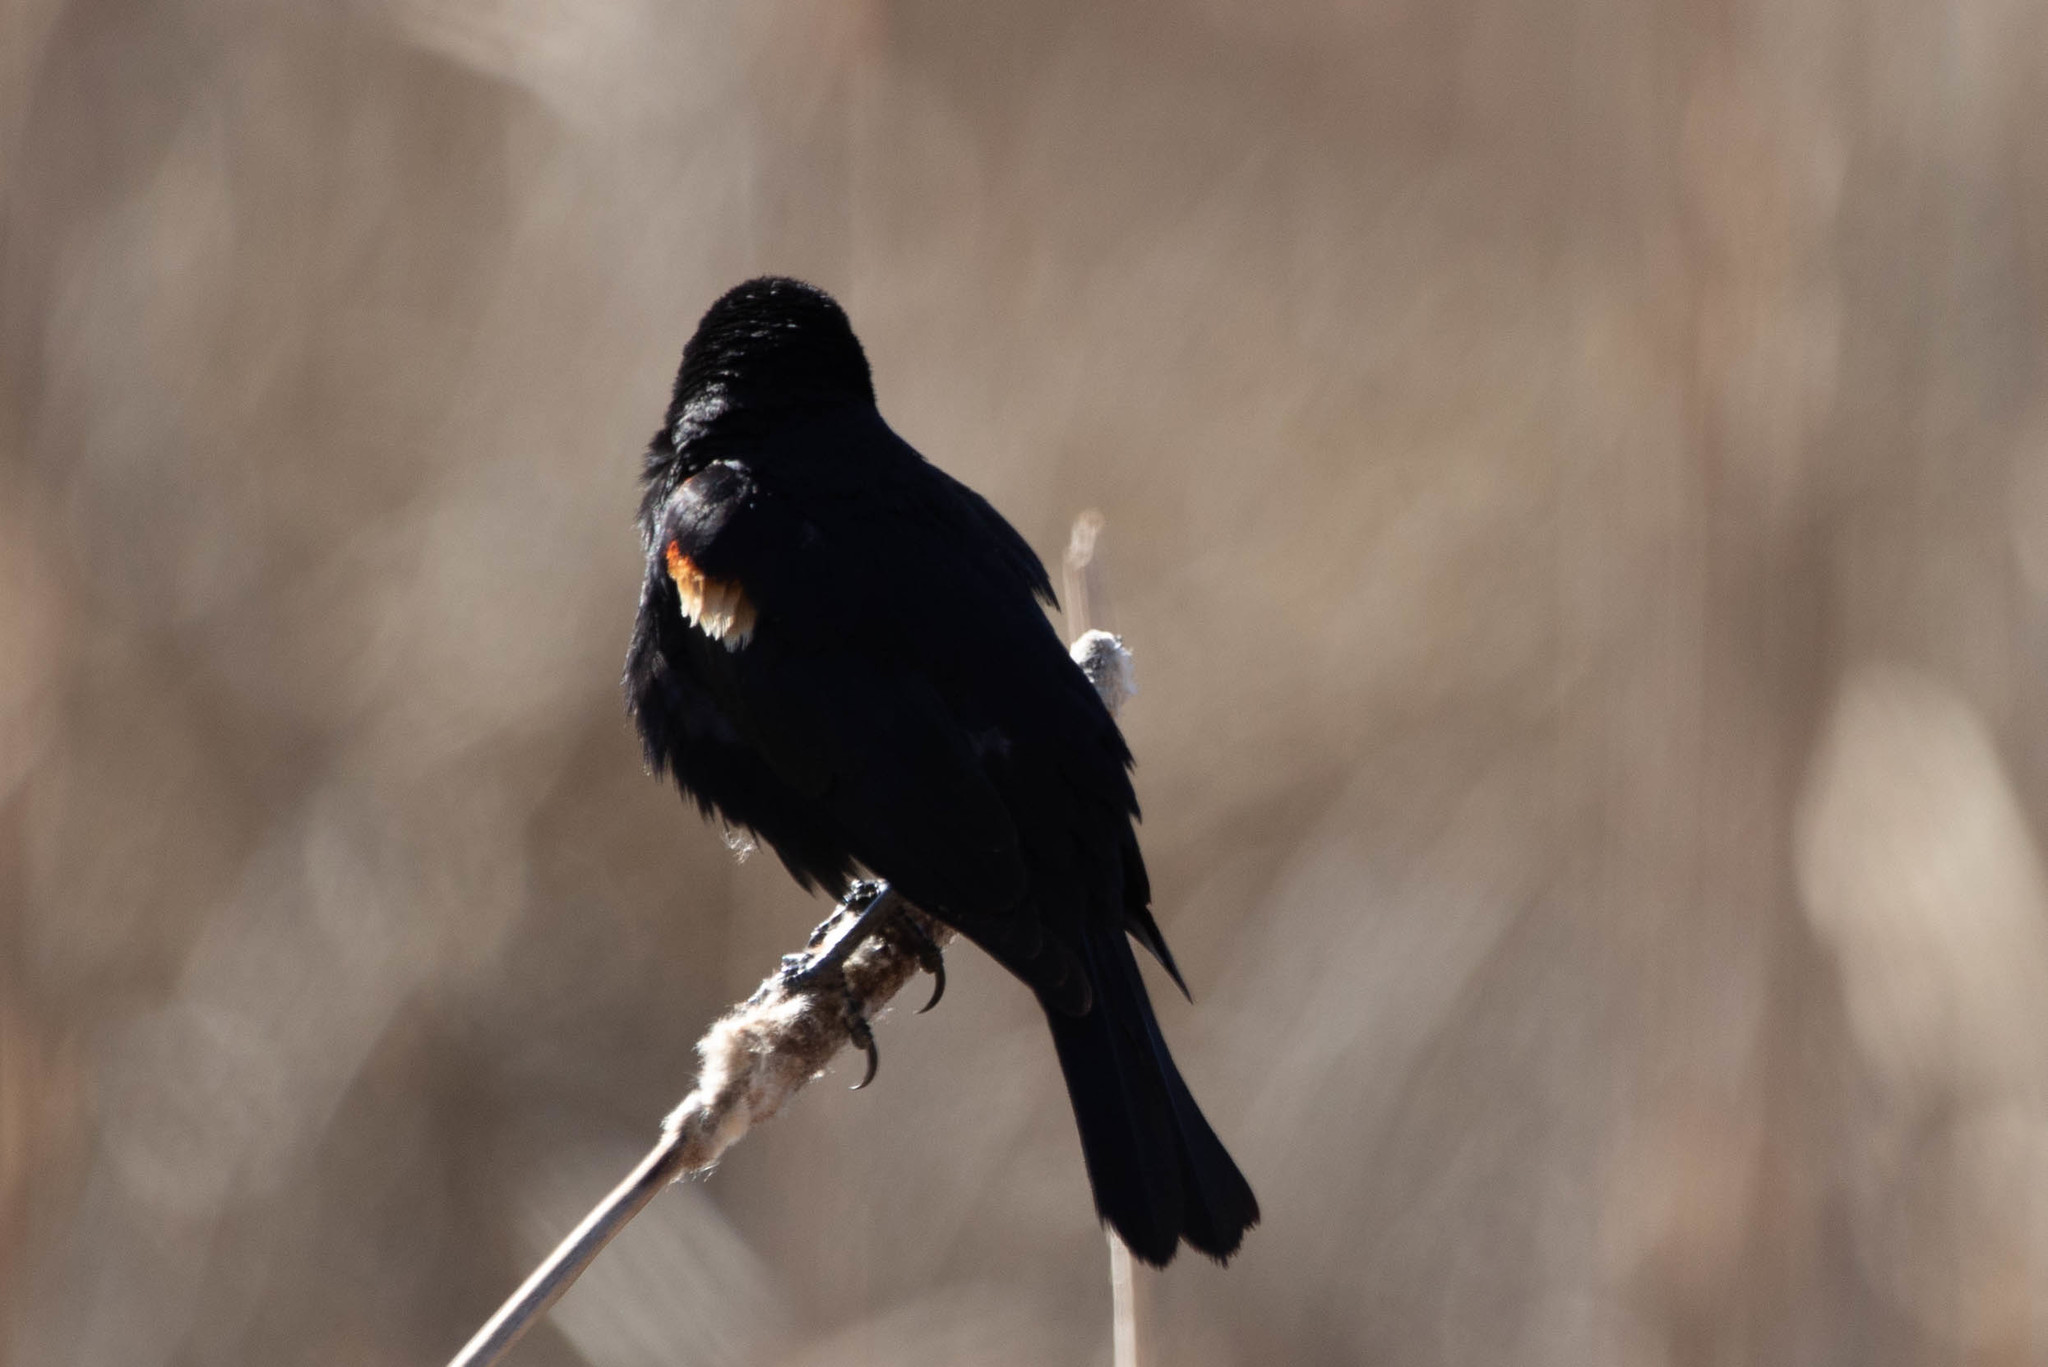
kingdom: Animalia
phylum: Chordata
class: Aves
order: Passeriformes
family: Icteridae
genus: Agelaius
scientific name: Agelaius phoeniceus
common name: Red-winged blackbird
